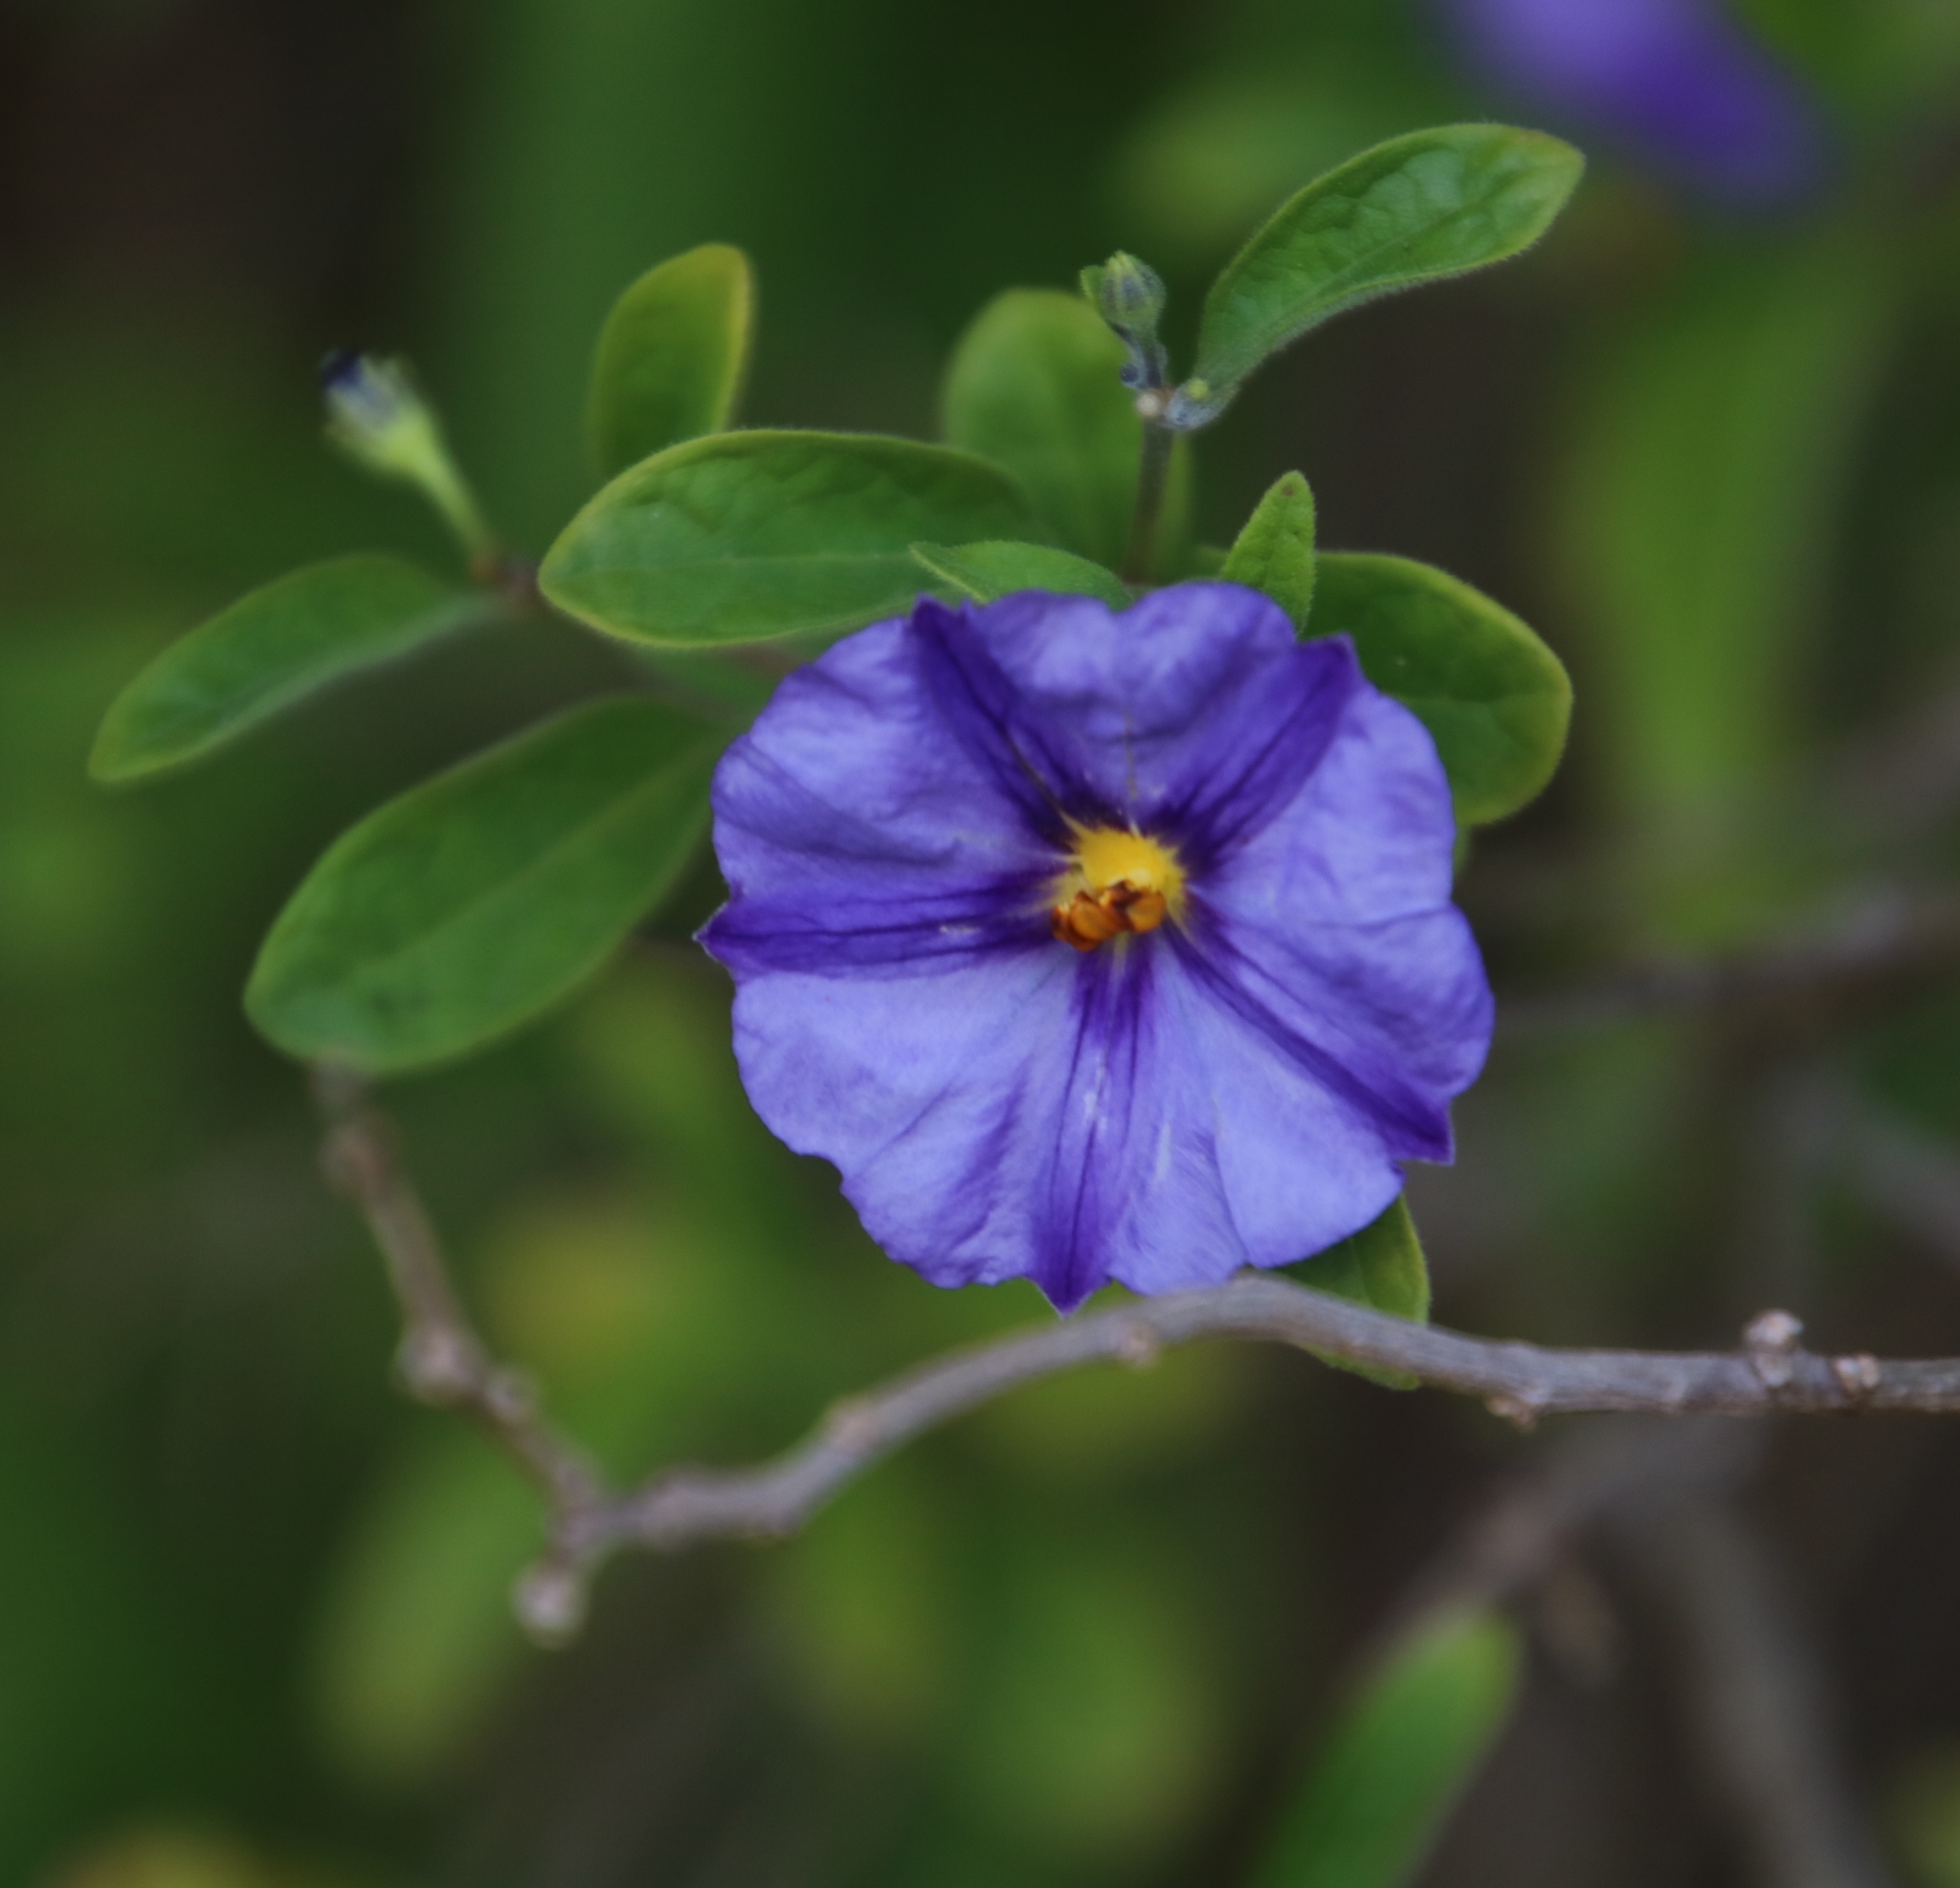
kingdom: Plantae
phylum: Tracheophyta
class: Magnoliopsida
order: Solanales
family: Solanaceae
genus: Lycianthes
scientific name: Lycianthes rantonnetii
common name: Blue potatobush
